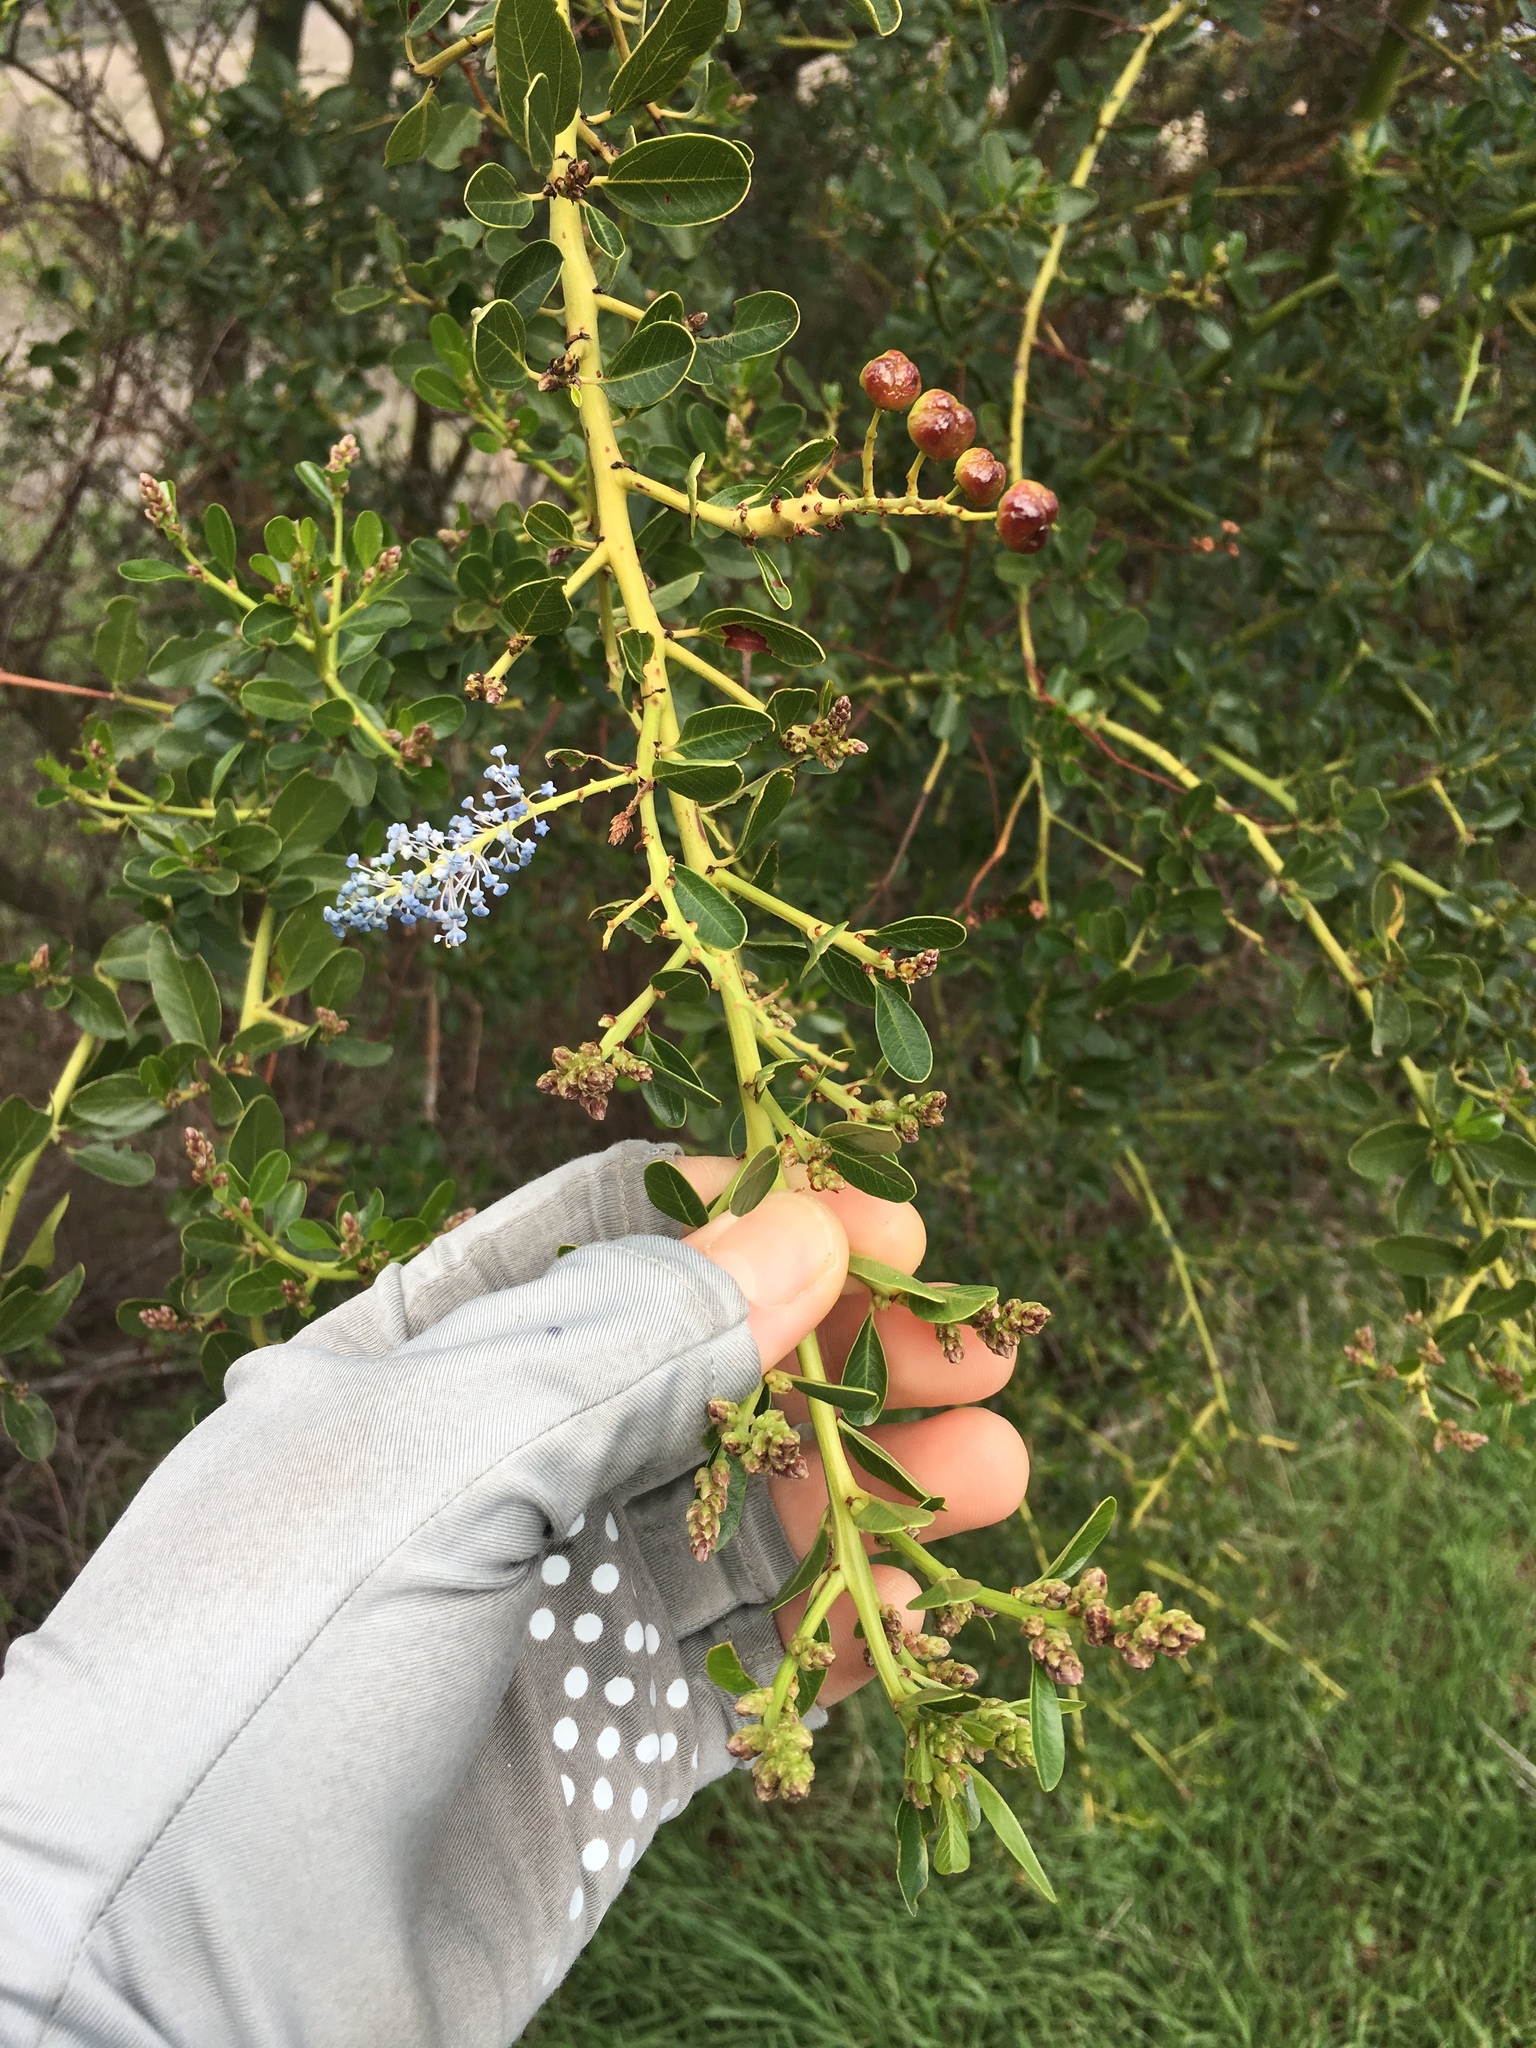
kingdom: Plantae
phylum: Tracheophyta
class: Magnoliopsida
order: Rosales
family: Rhamnaceae
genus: Ceanothus
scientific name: Ceanothus spinosus
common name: Greenbark whitethorn
